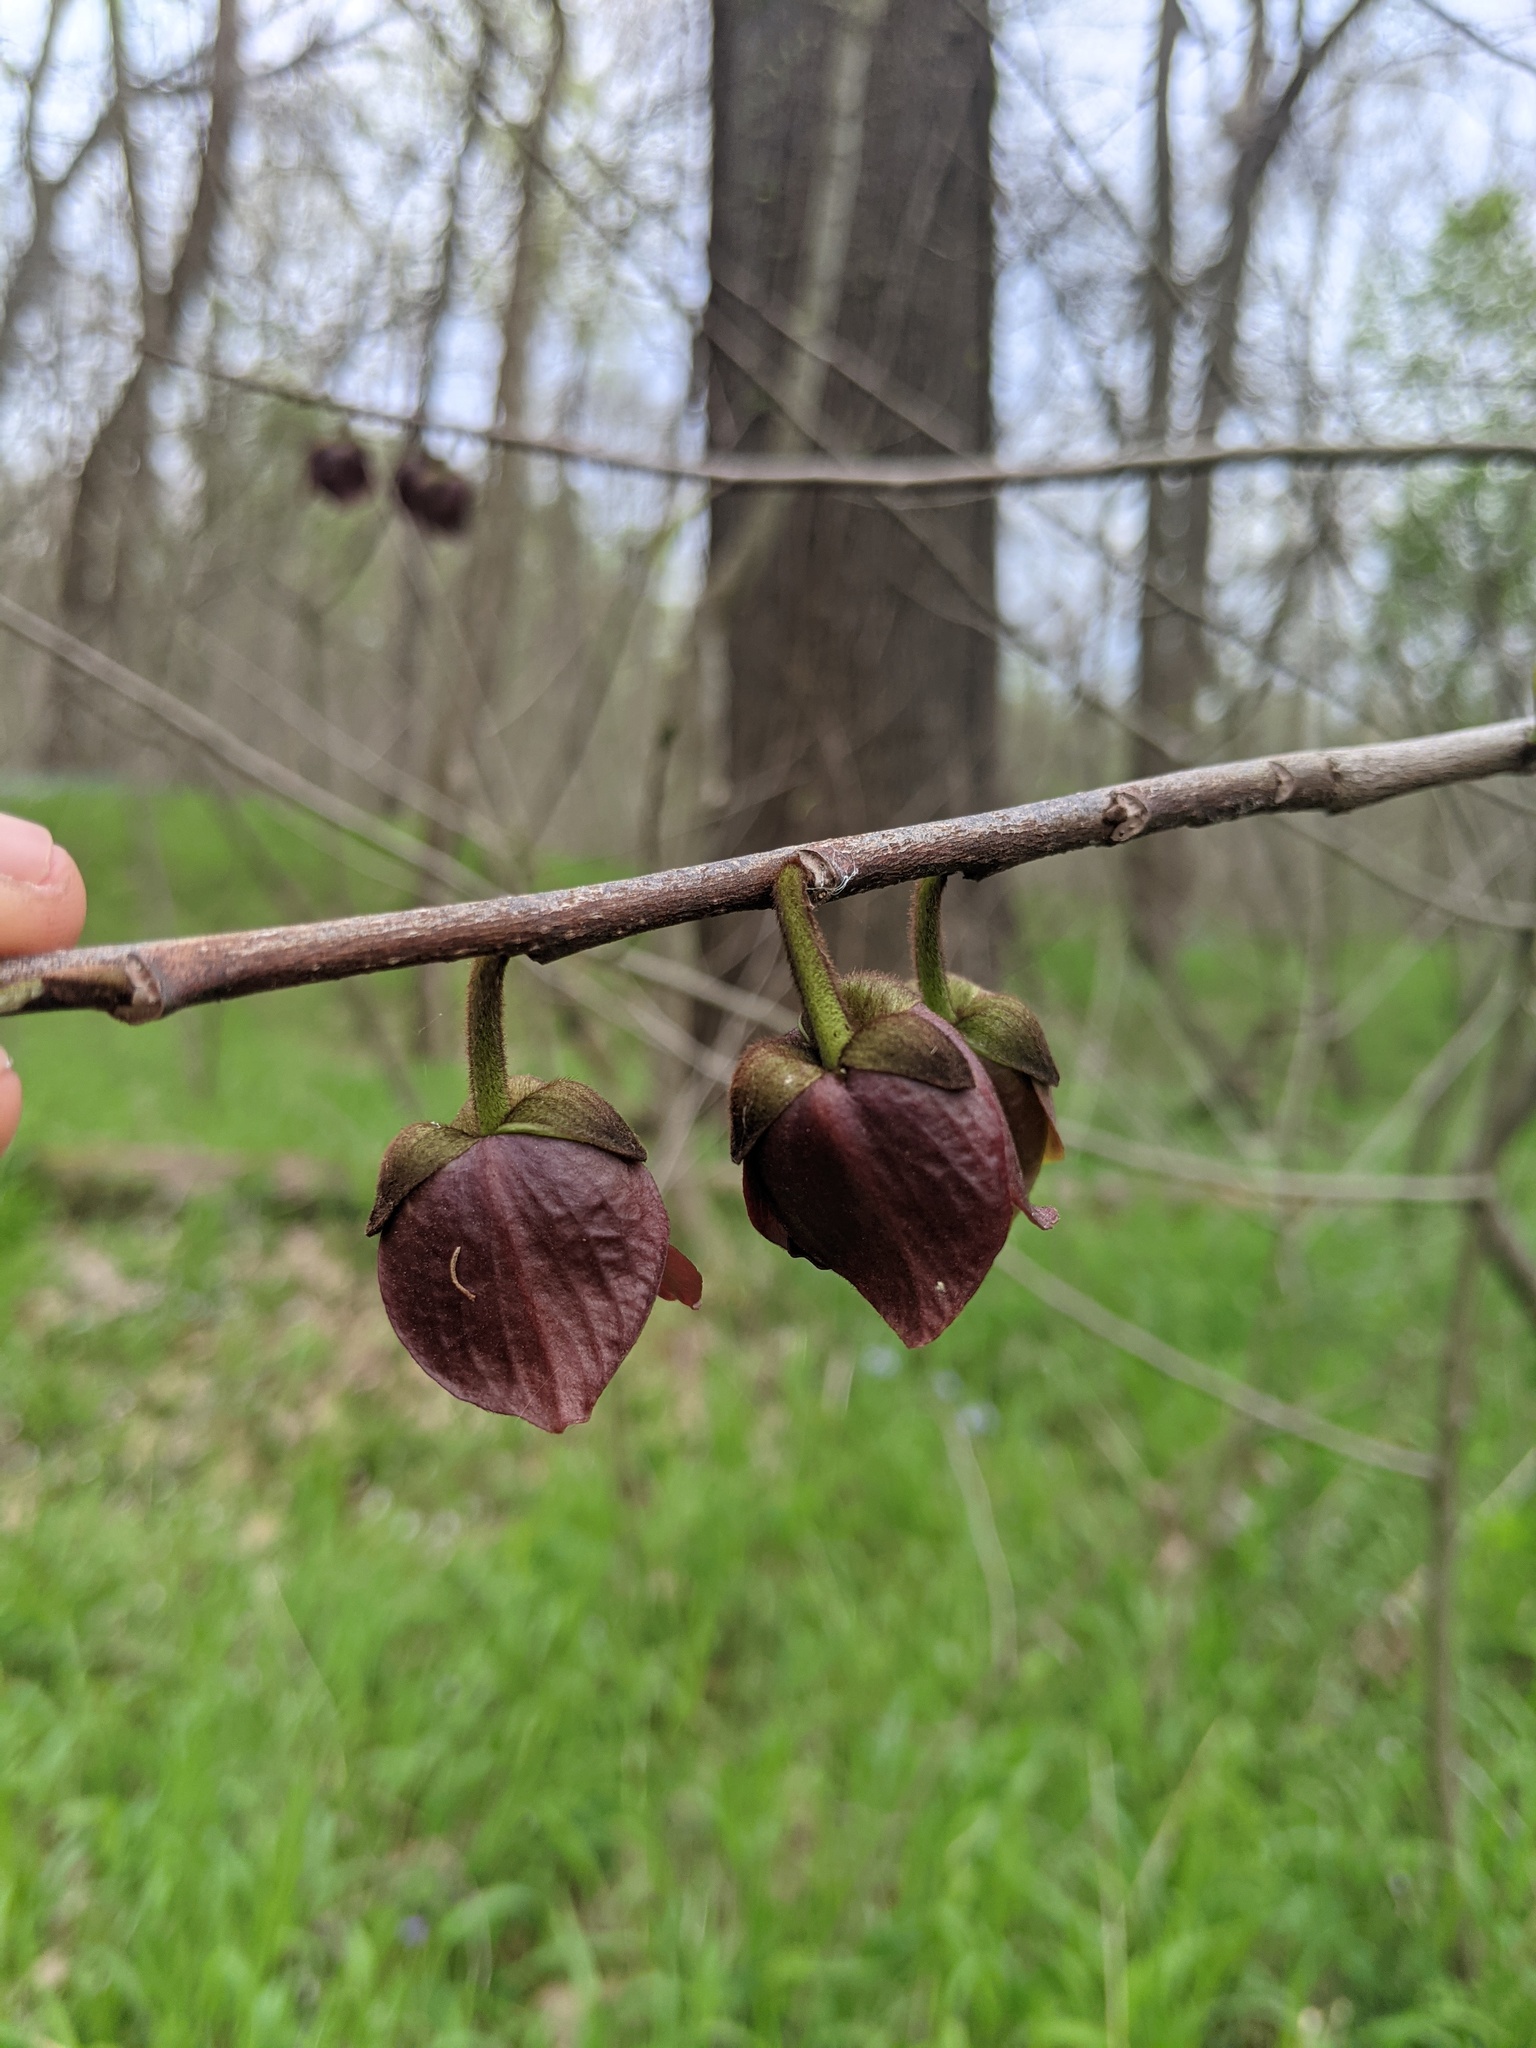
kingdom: Plantae
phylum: Tracheophyta
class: Magnoliopsida
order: Magnoliales
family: Annonaceae
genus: Asimina
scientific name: Asimina triloba
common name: Dog-banana
